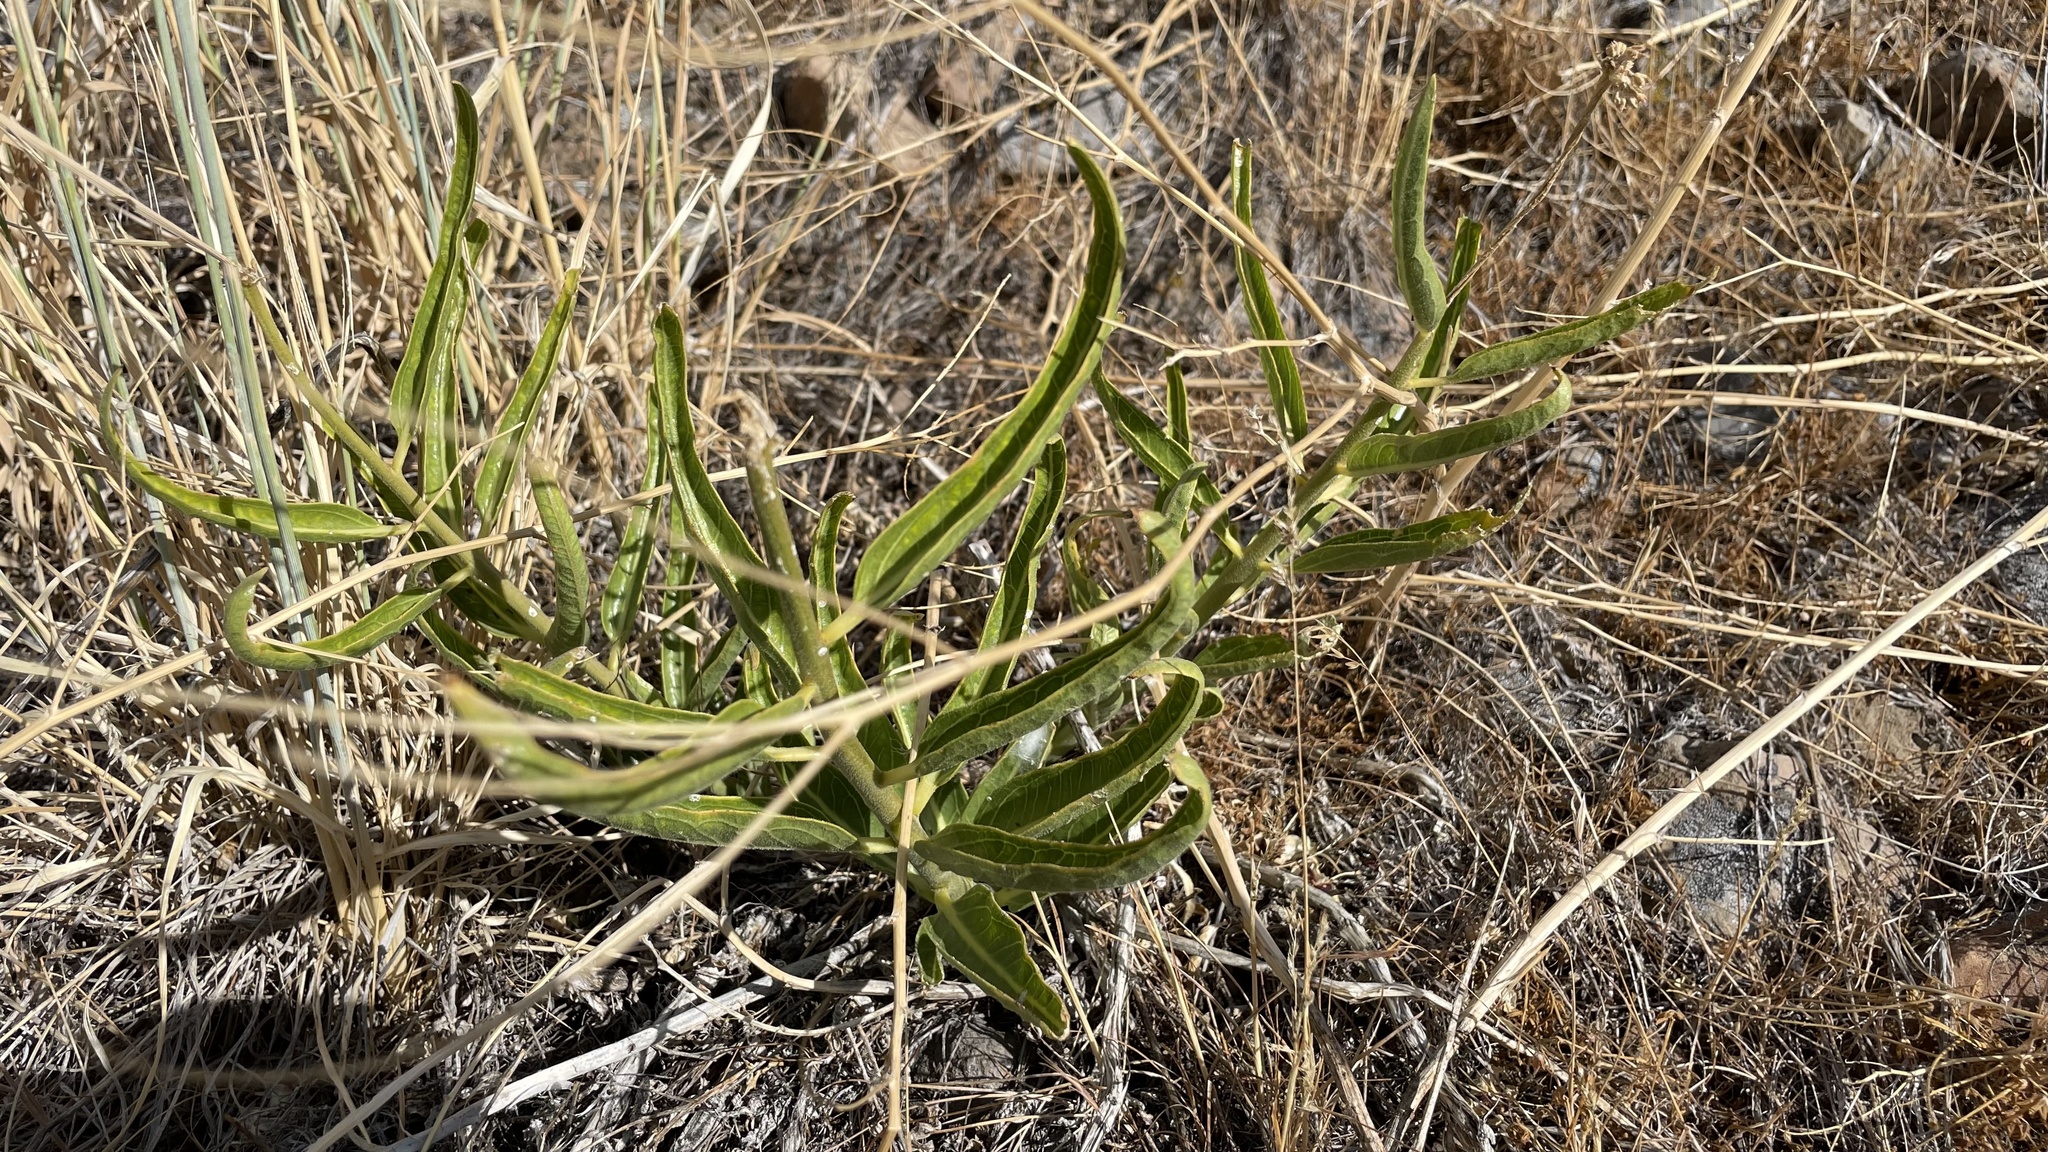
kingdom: Plantae
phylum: Tracheophyta
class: Magnoliopsida
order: Gentianales
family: Apocynaceae
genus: Asclepias
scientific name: Asclepias asperula
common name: Antelope horns
